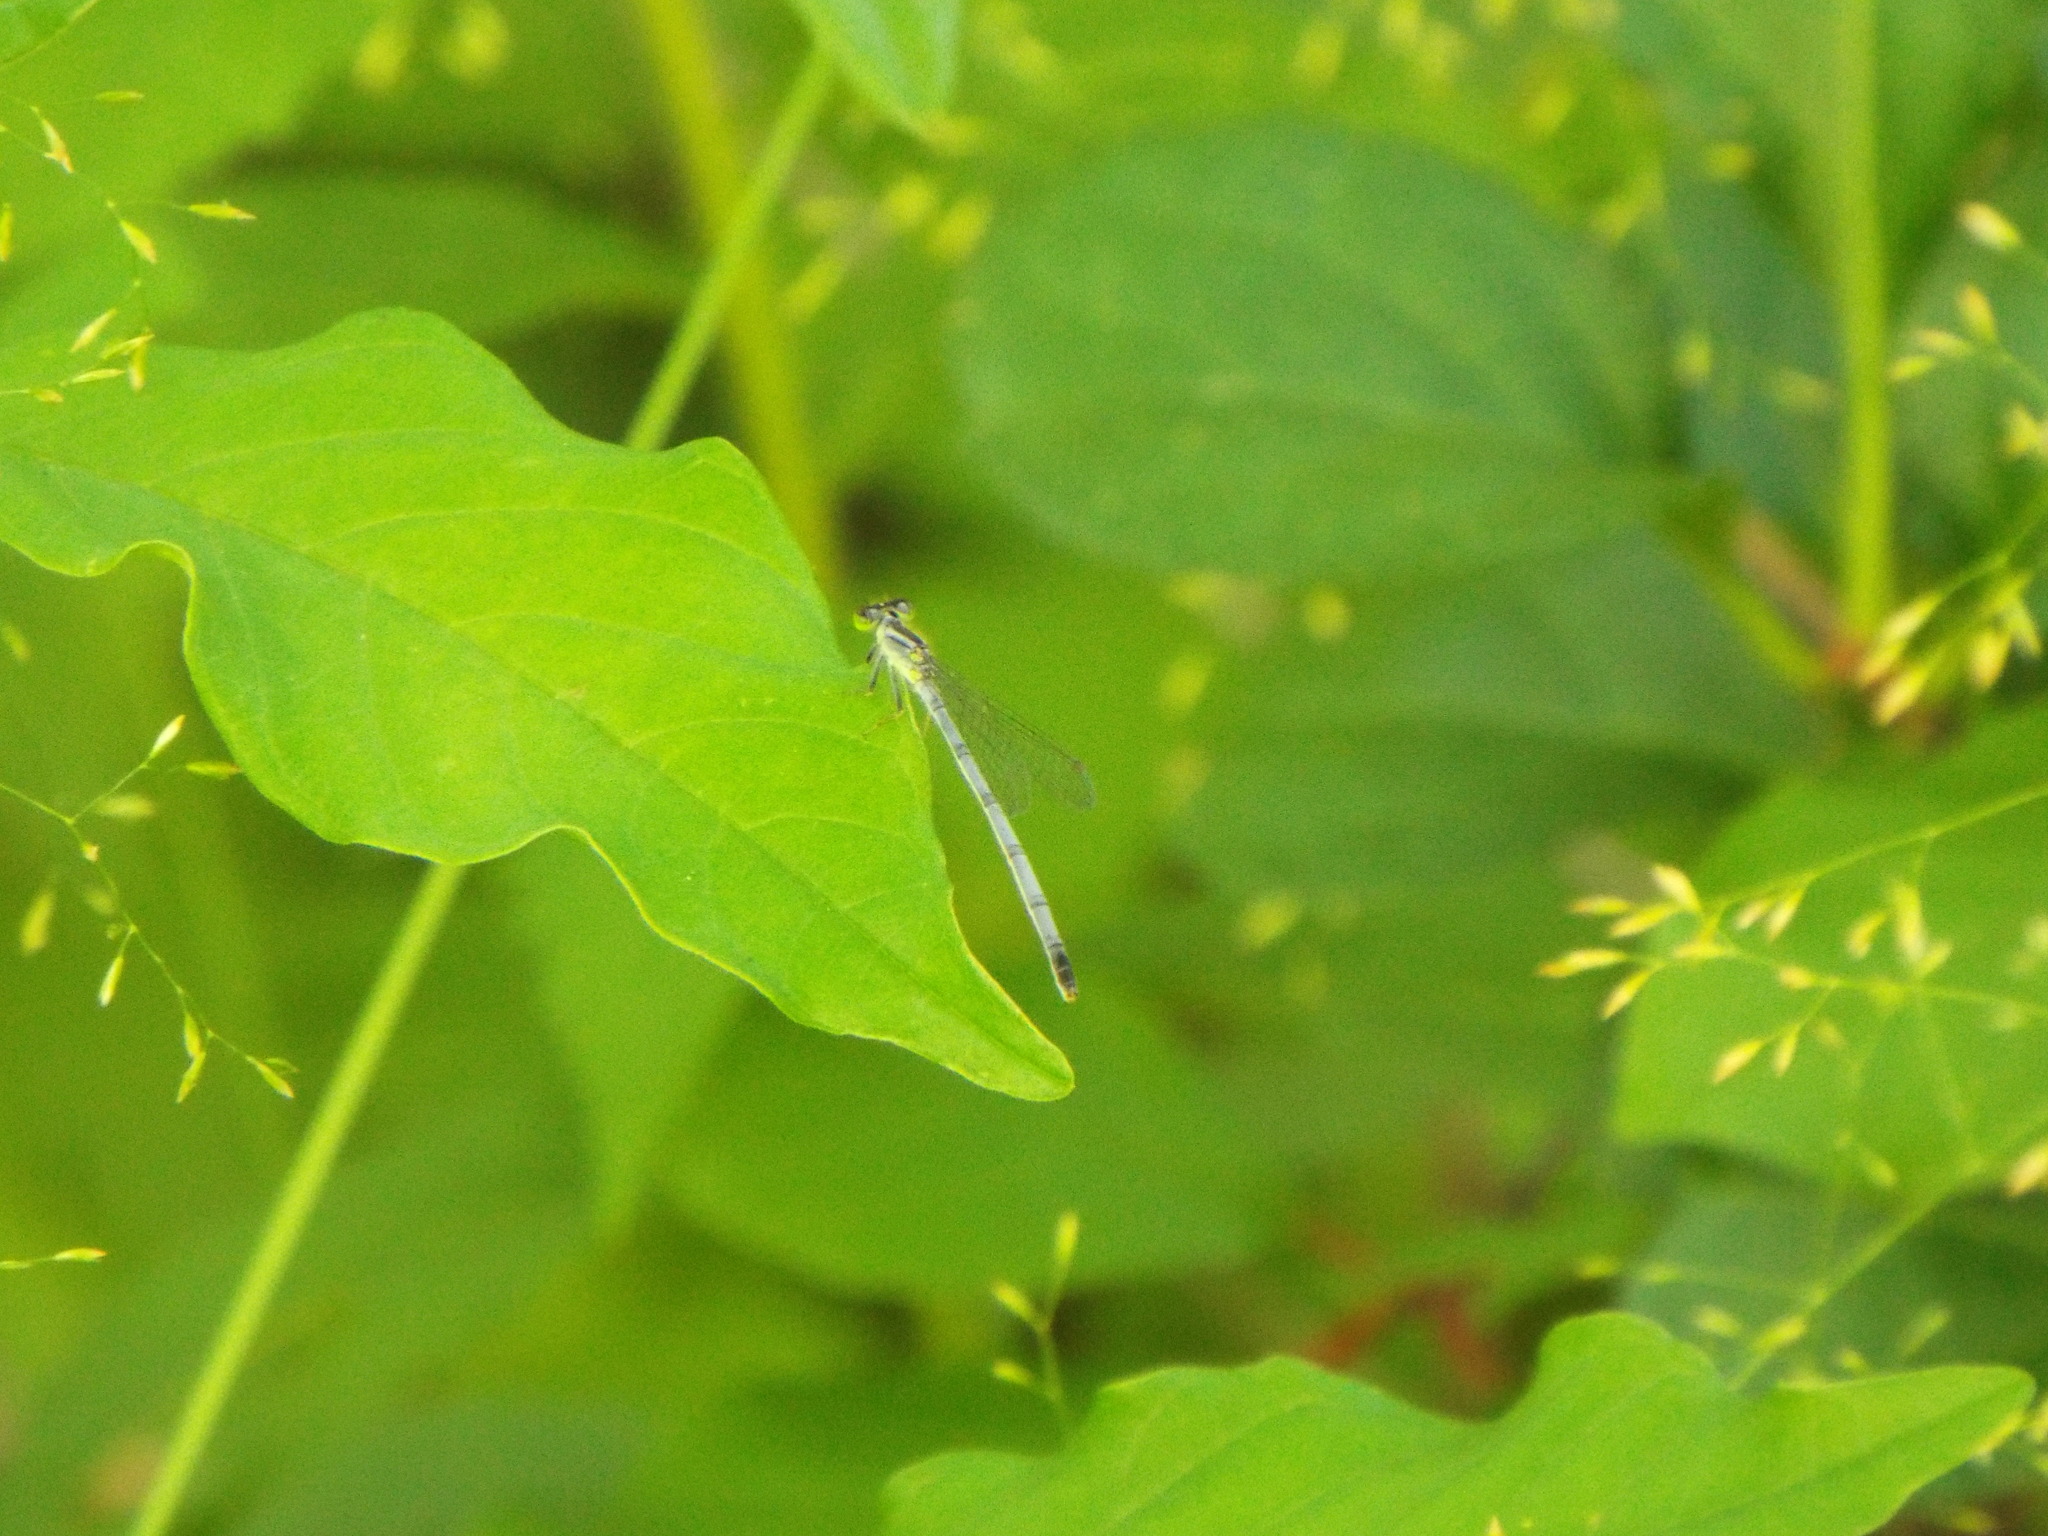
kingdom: Animalia
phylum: Arthropoda
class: Insecta
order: Odonata
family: Coenagrionidae
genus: Ischnura
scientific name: Ischnura verticalis
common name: Eastern forktail
